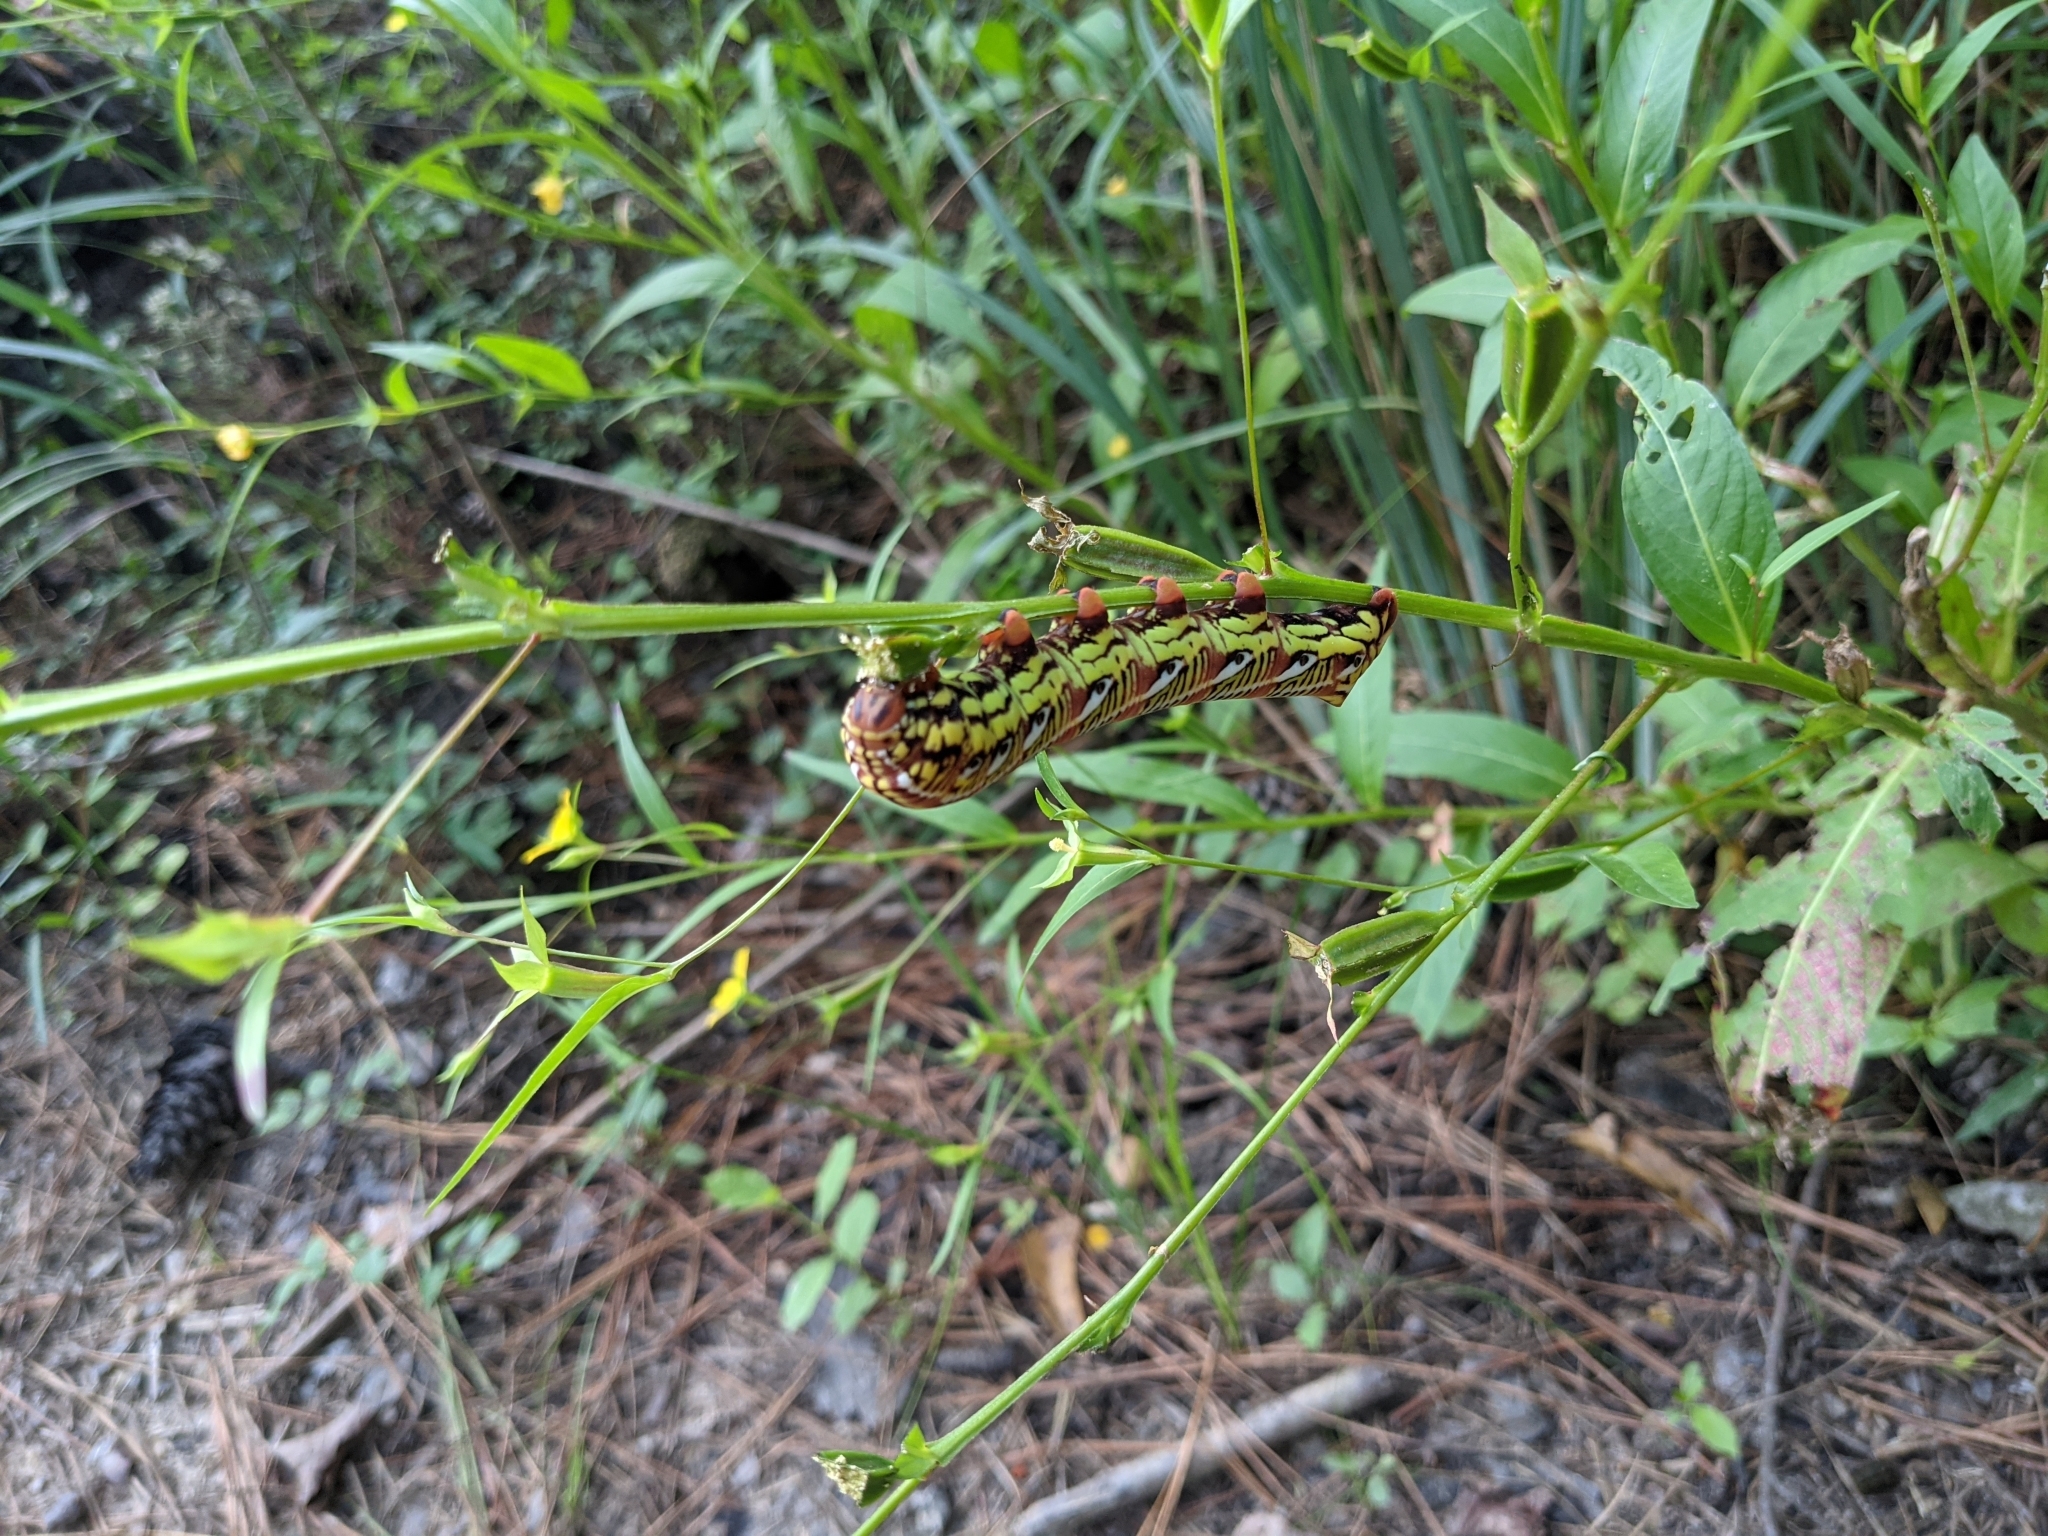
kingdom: Animalia
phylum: Arthropoda
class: Insecta
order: Lepidoptera
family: Sphingidae
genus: Eumorpha
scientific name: Eumorpha fasciatus
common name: Banded sphinx
